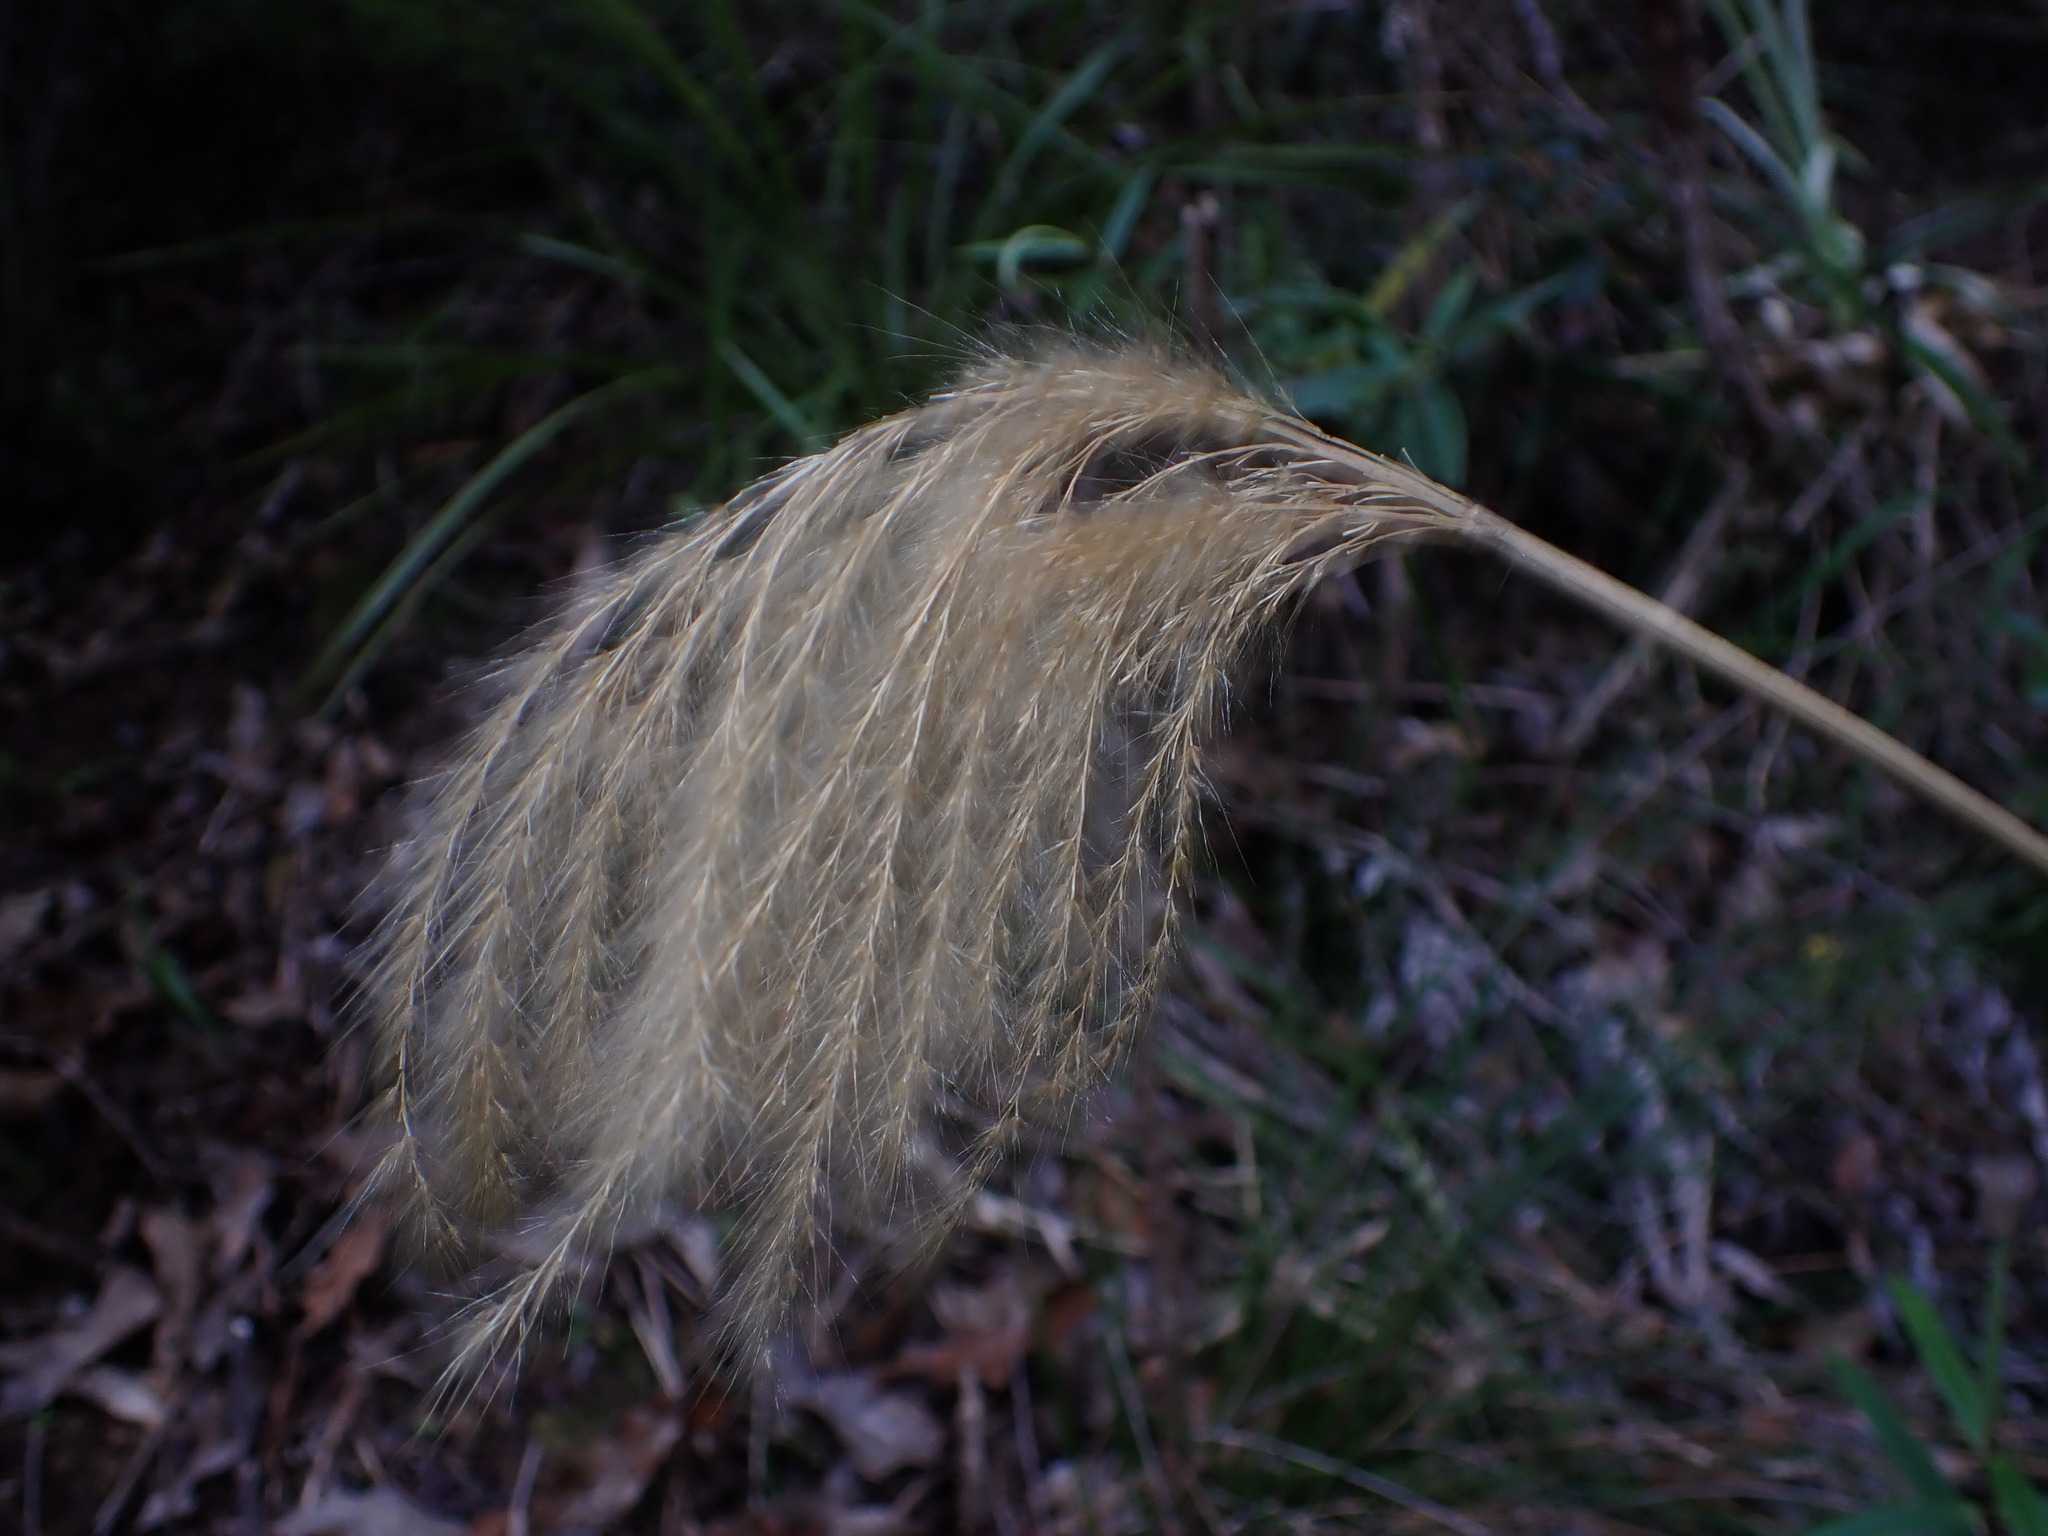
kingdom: Plantae
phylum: Tracheophyta
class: Liliopsida
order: Poales
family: Poaceae
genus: Miscanthus
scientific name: Miscanthus nepalensis
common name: Nepal silver grass
